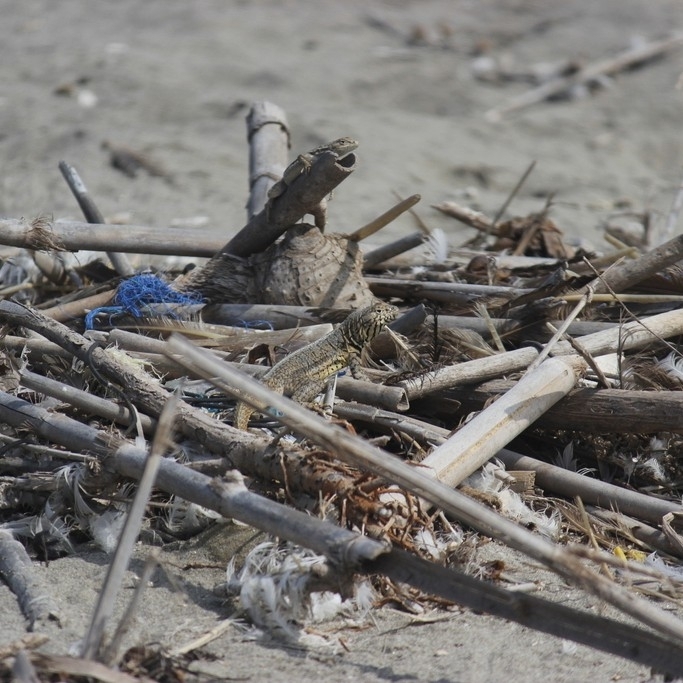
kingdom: Animalia
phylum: Chordata
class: Squamata
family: Tropiduridae
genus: Microlophus
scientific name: Microlophus peruvianus
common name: Peru pacific iguana
